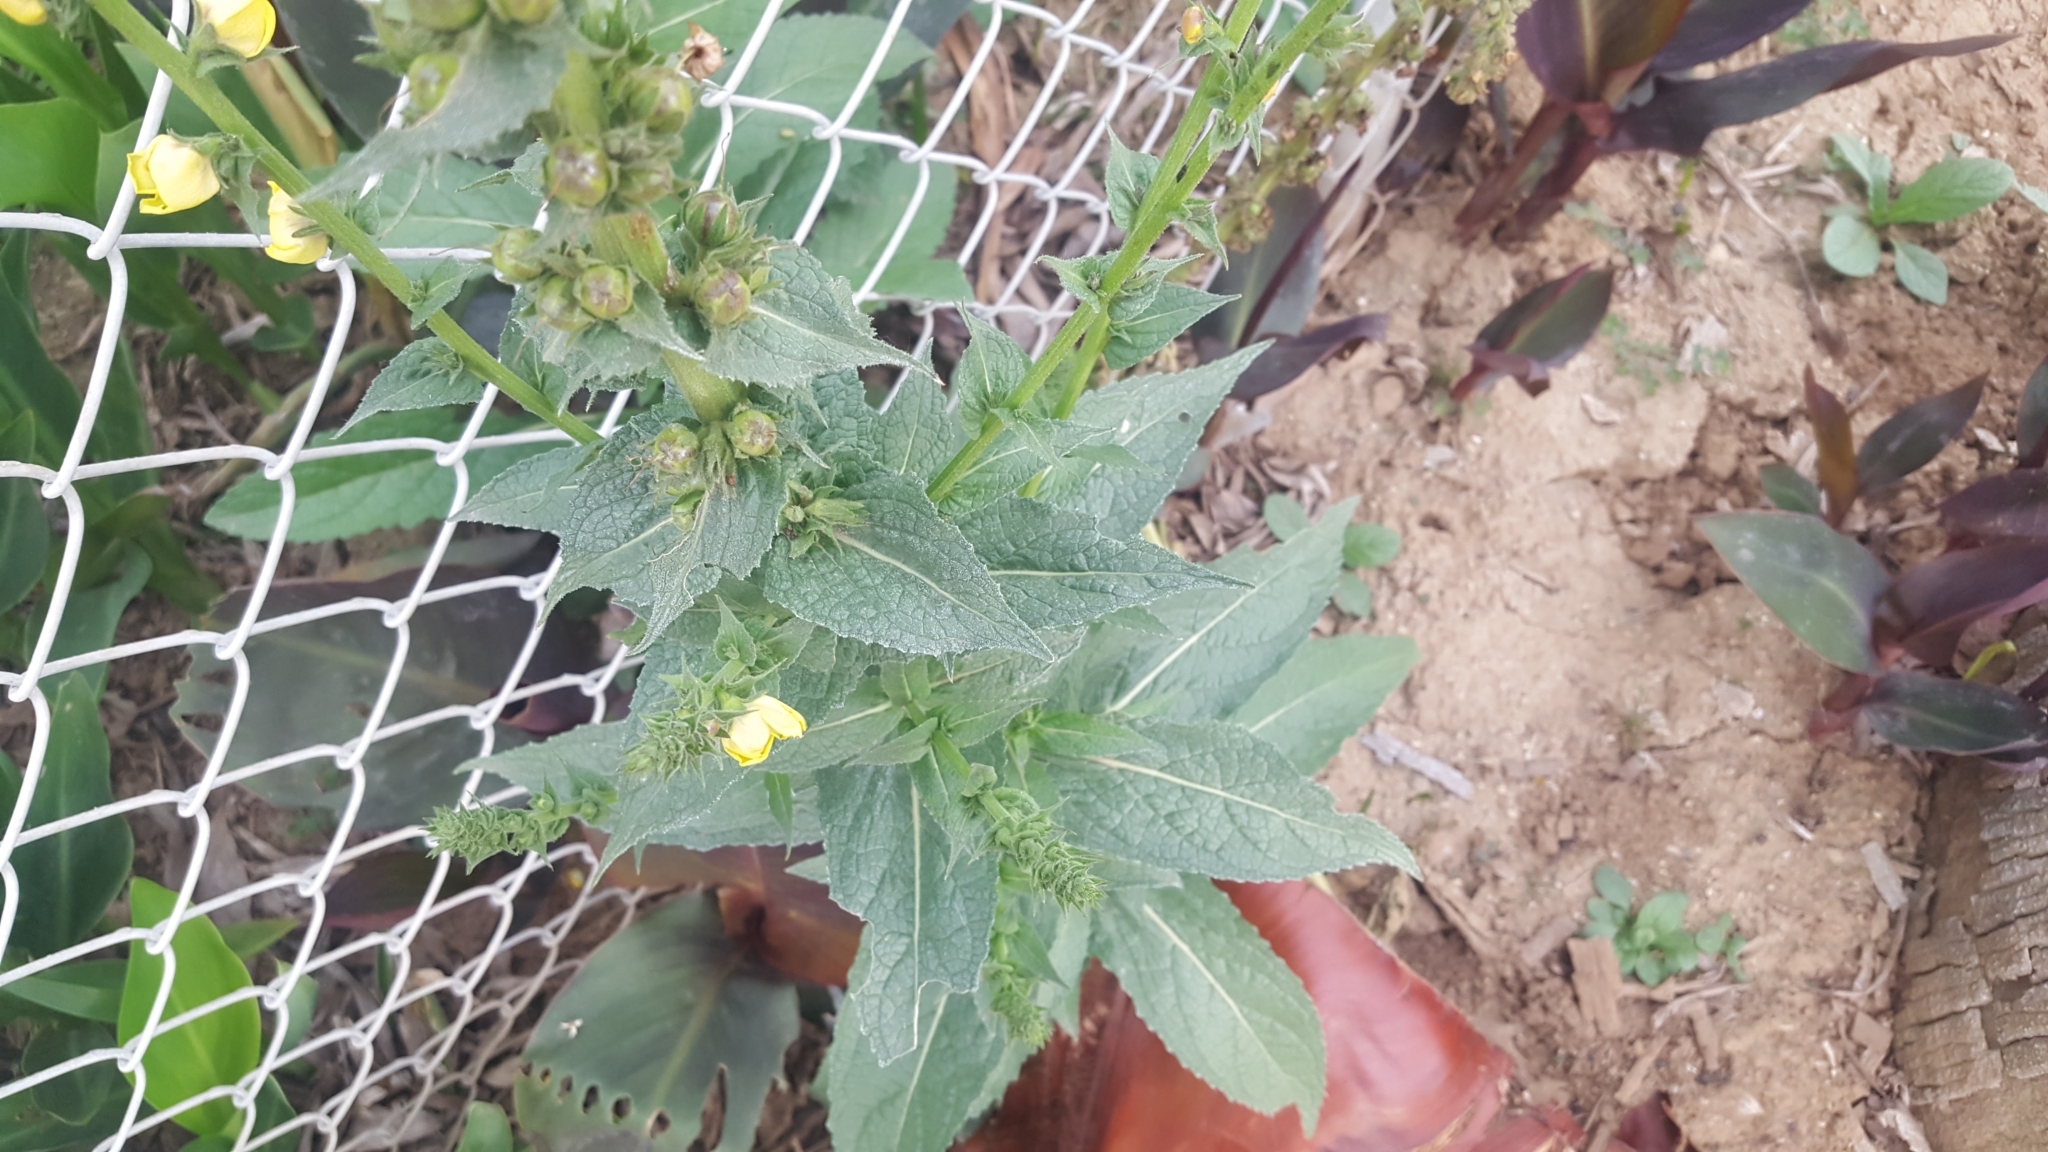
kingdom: Plantae
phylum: Tracheophyta
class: Magnoliopsida
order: Lamiales
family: Scrophulariaceae
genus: Verbascum
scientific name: Verbascum virgatum
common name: Twiggy mullein
